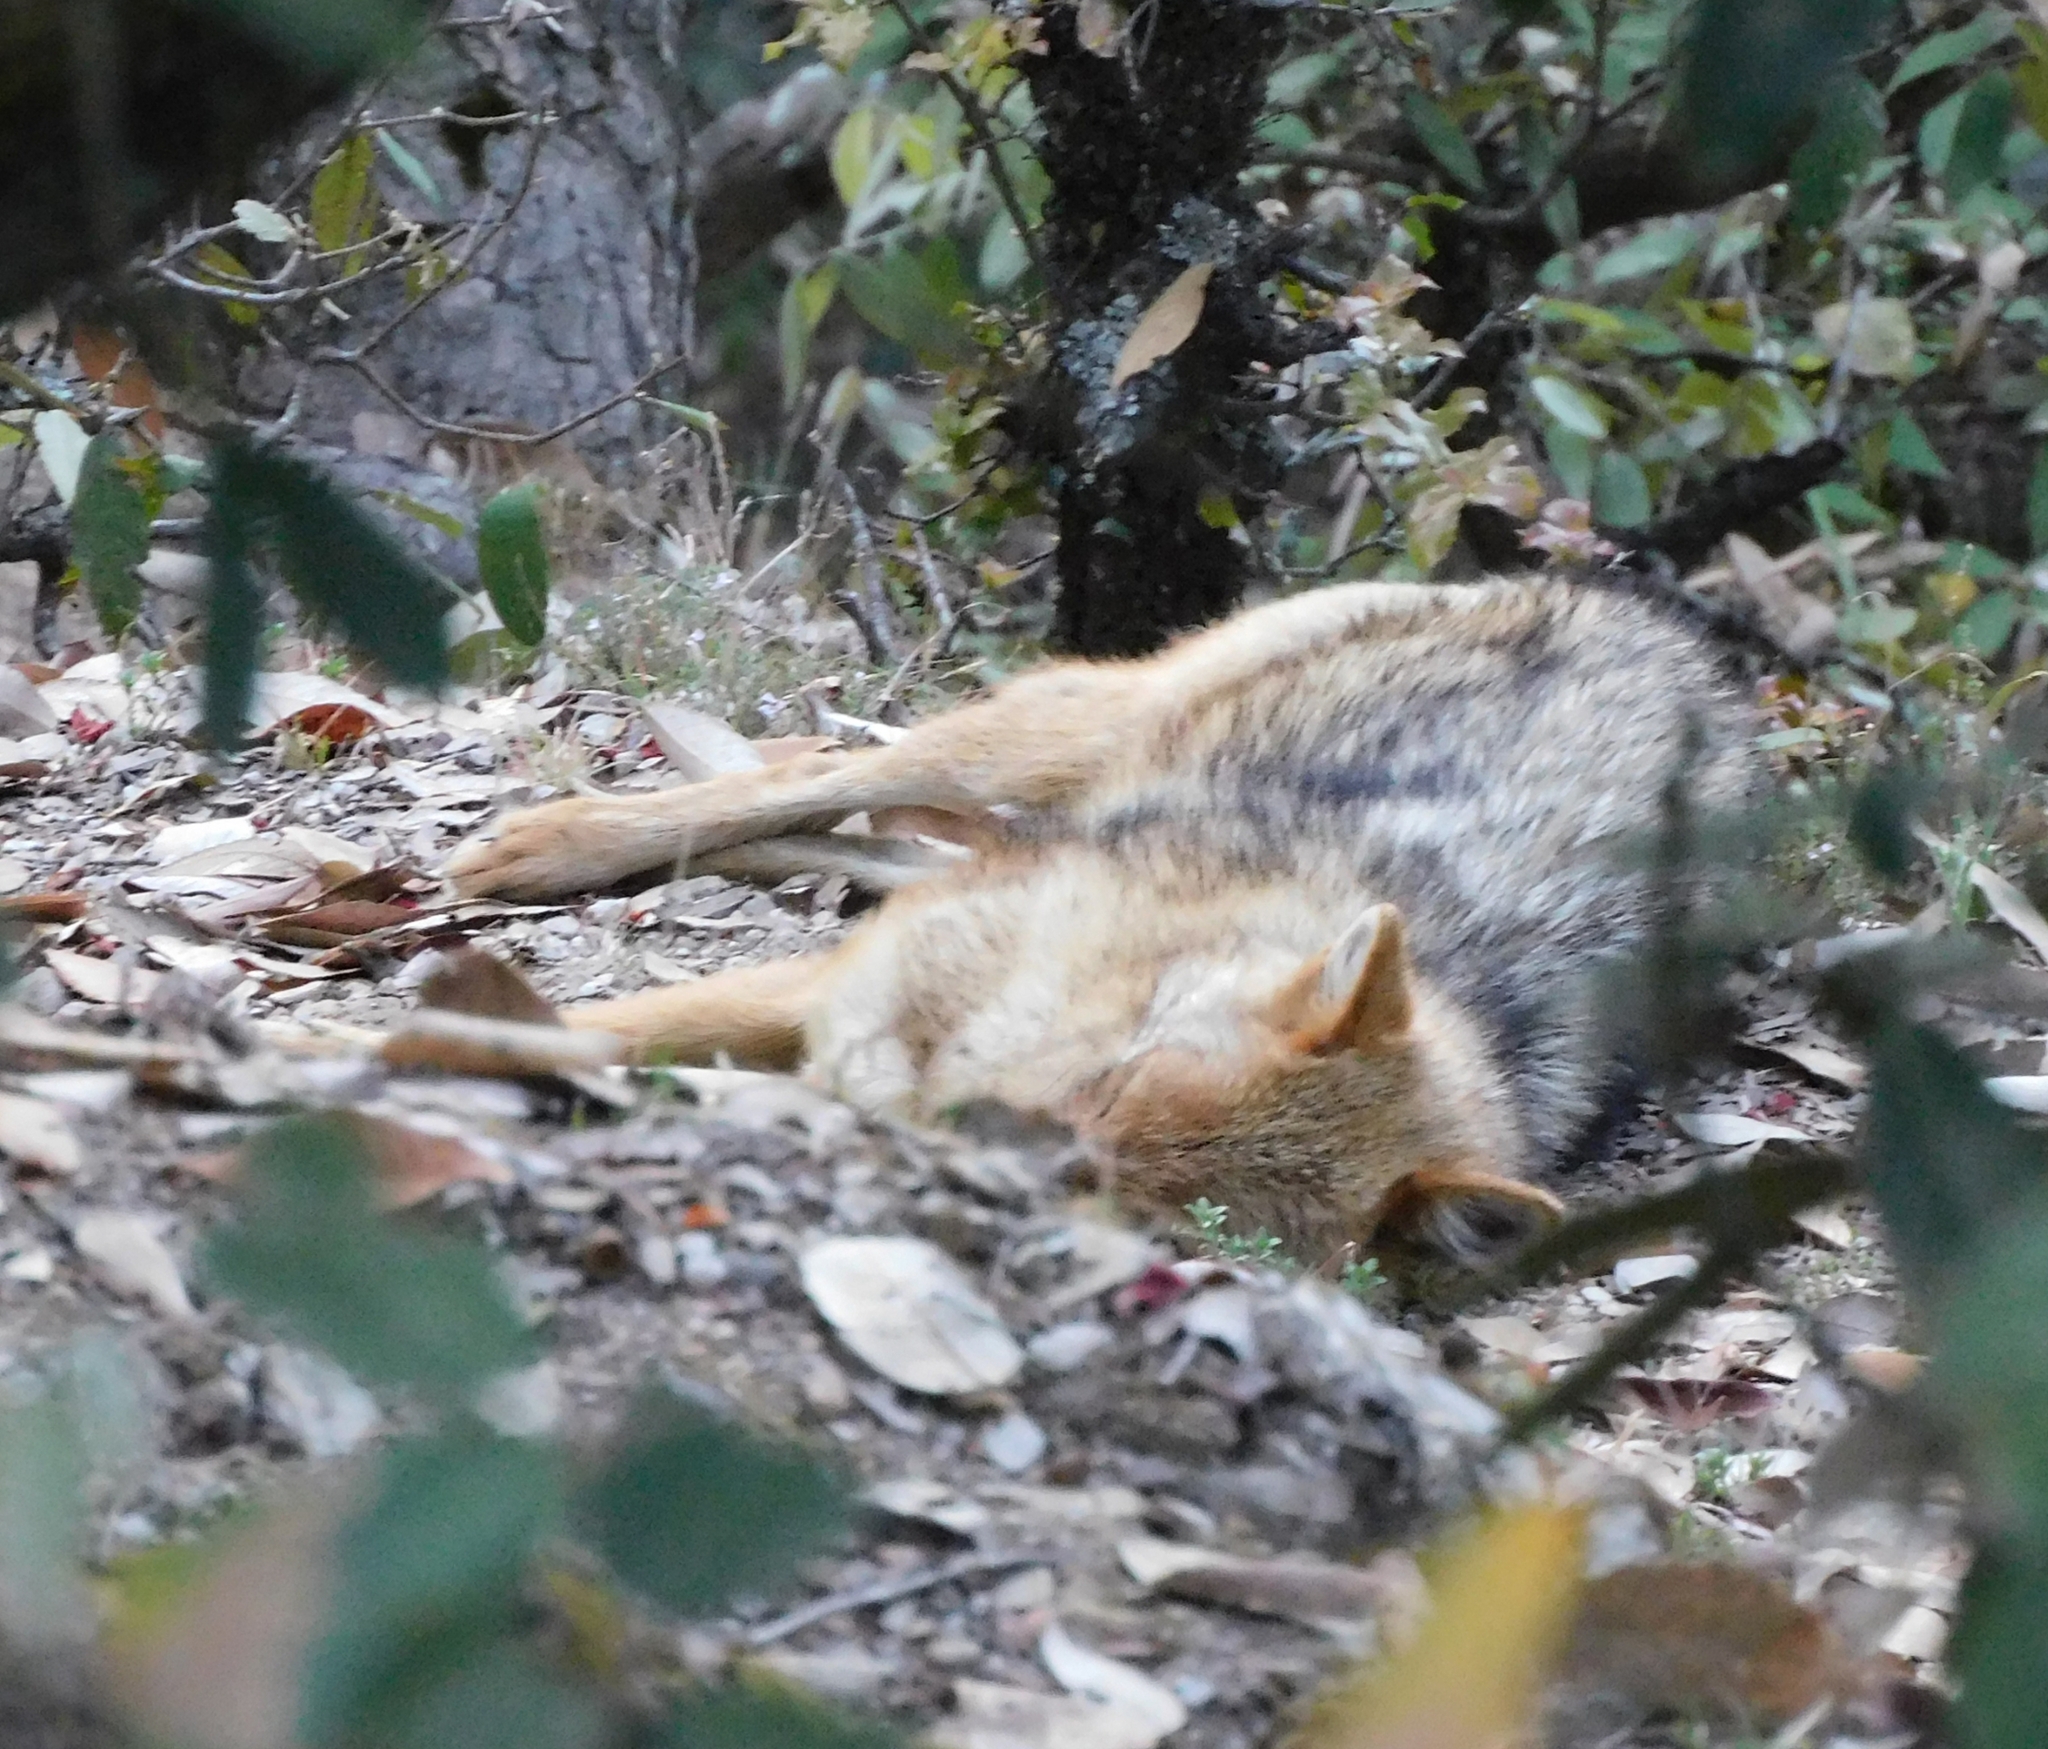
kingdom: Animalia
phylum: Chordata
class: Mammalia
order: Carnivora
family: Canidae
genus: Canis
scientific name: Canis aureus
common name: Golden jackal
